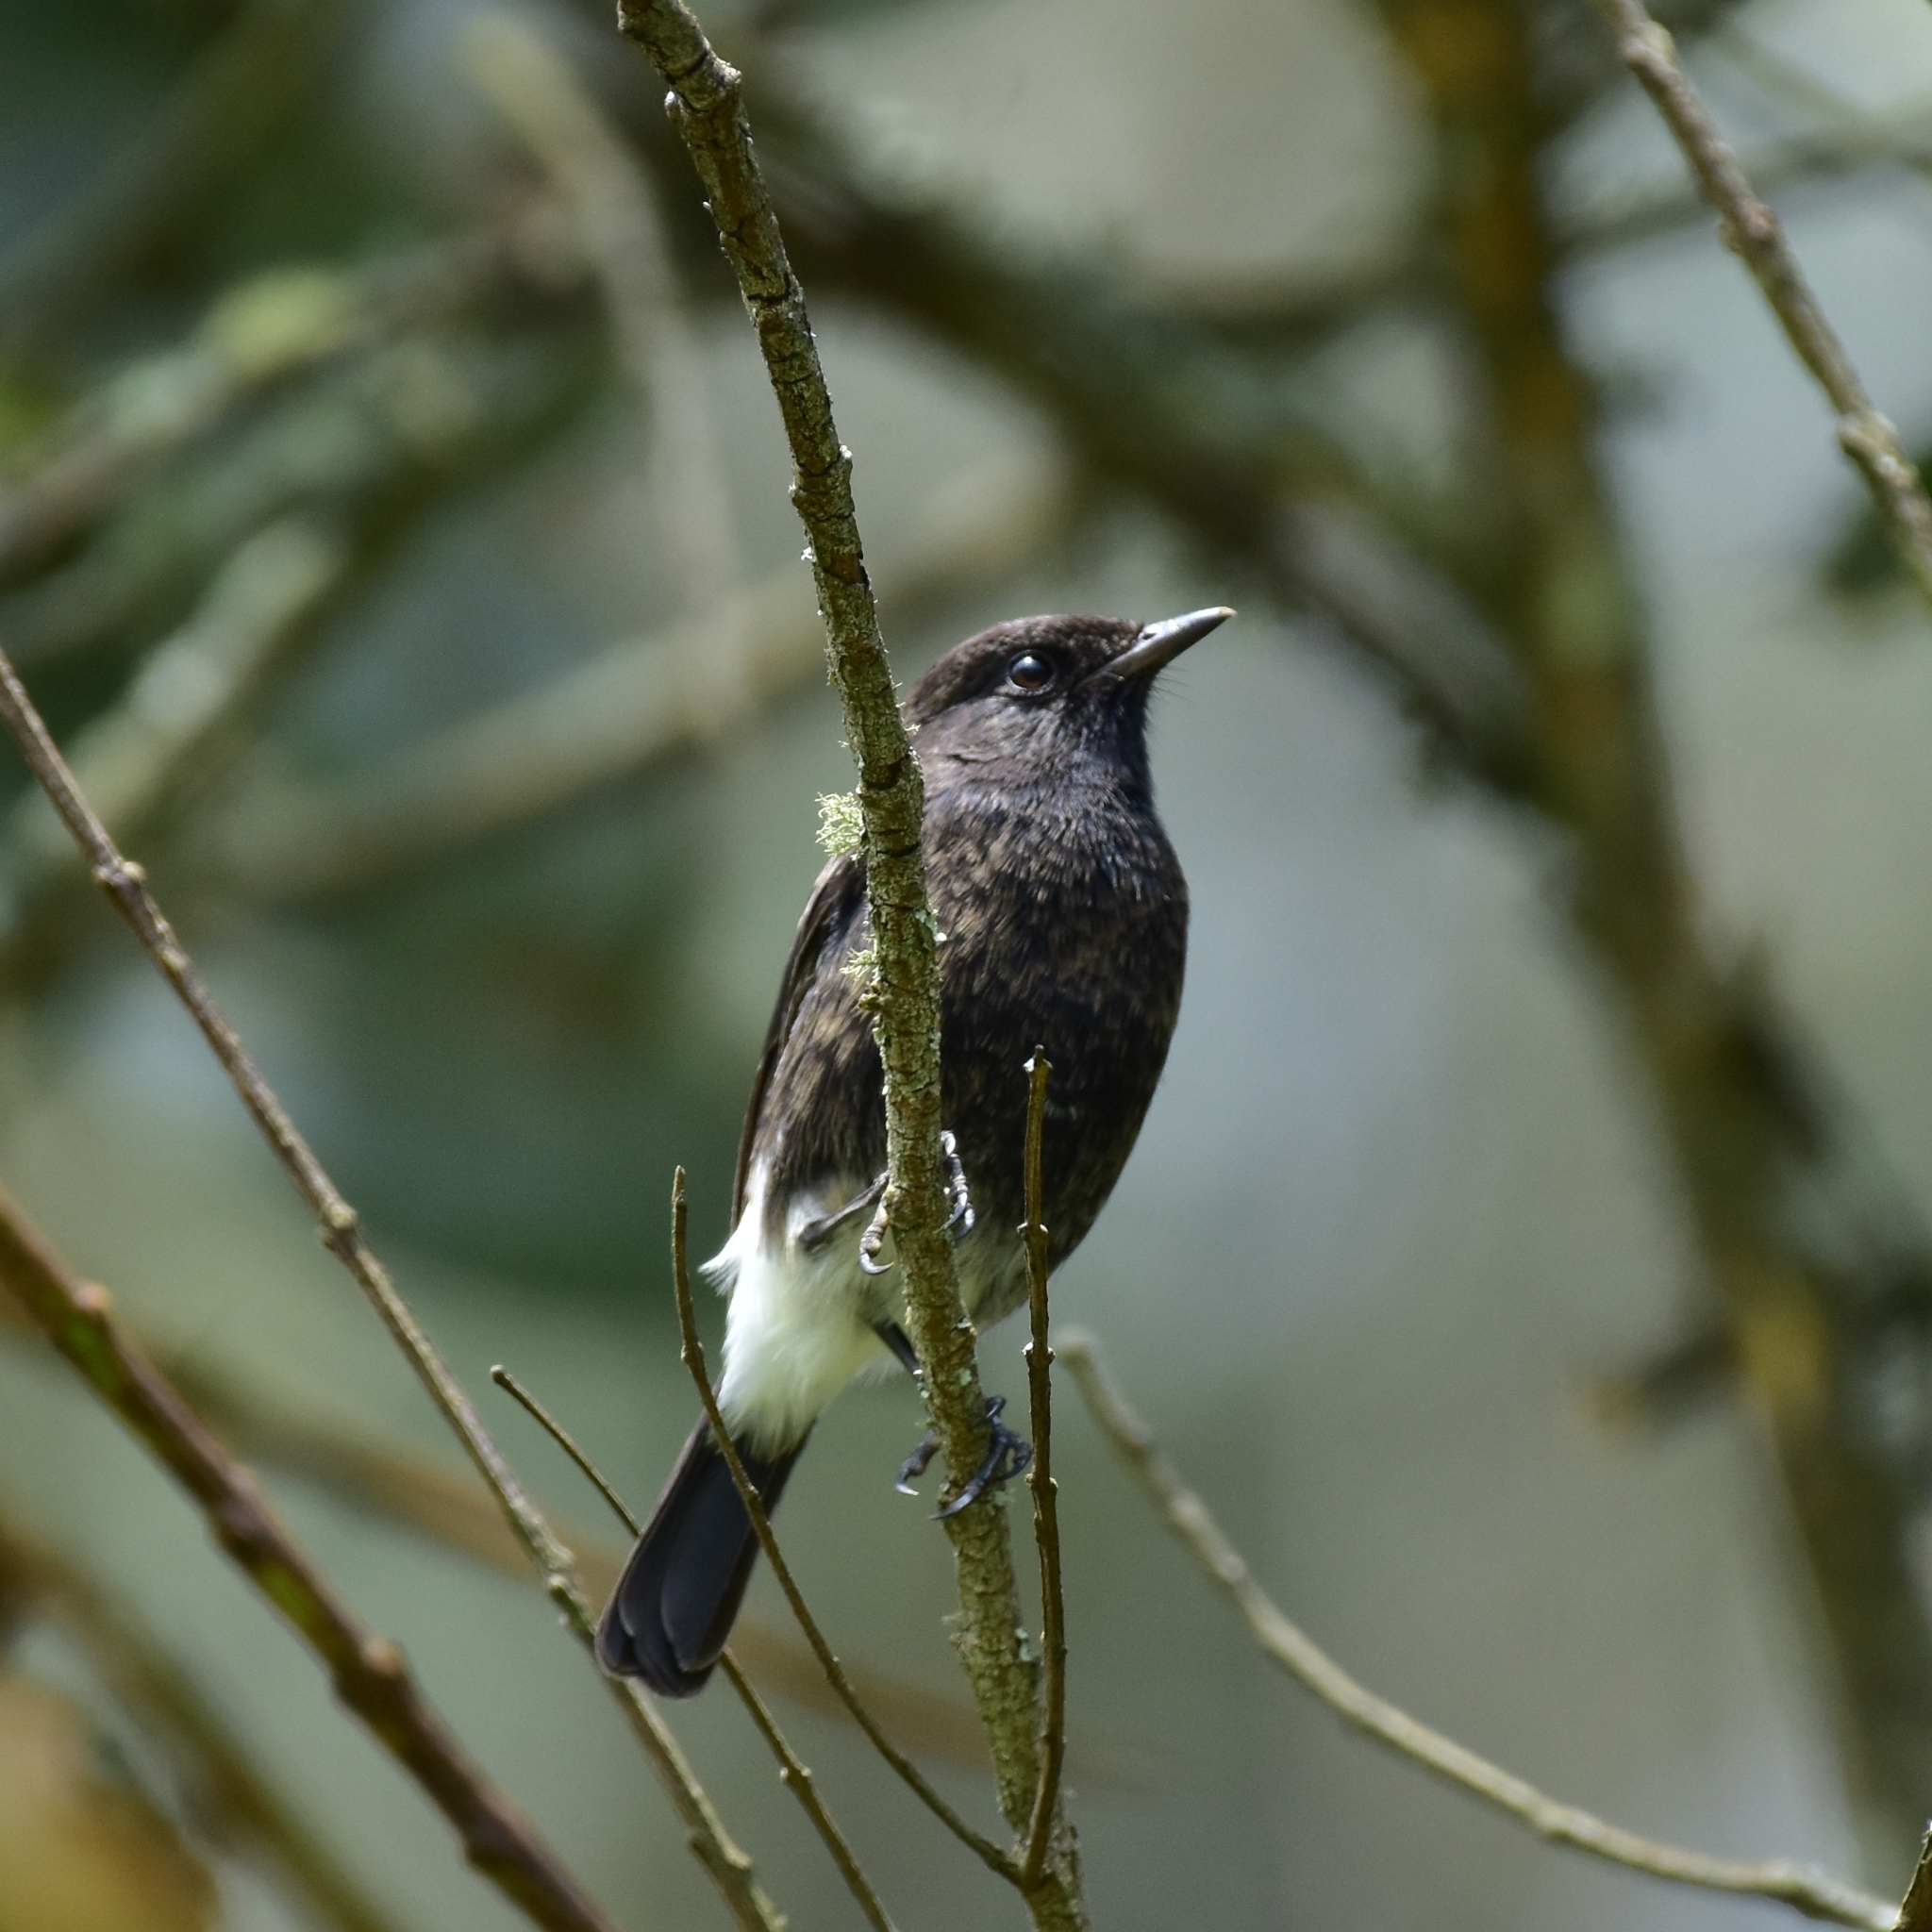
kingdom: Animalia
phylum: Chordata
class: Aves
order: Passeriformes
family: Muscicapidae
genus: Saxicola
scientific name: Saxicola caprata
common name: Pied bush chat
